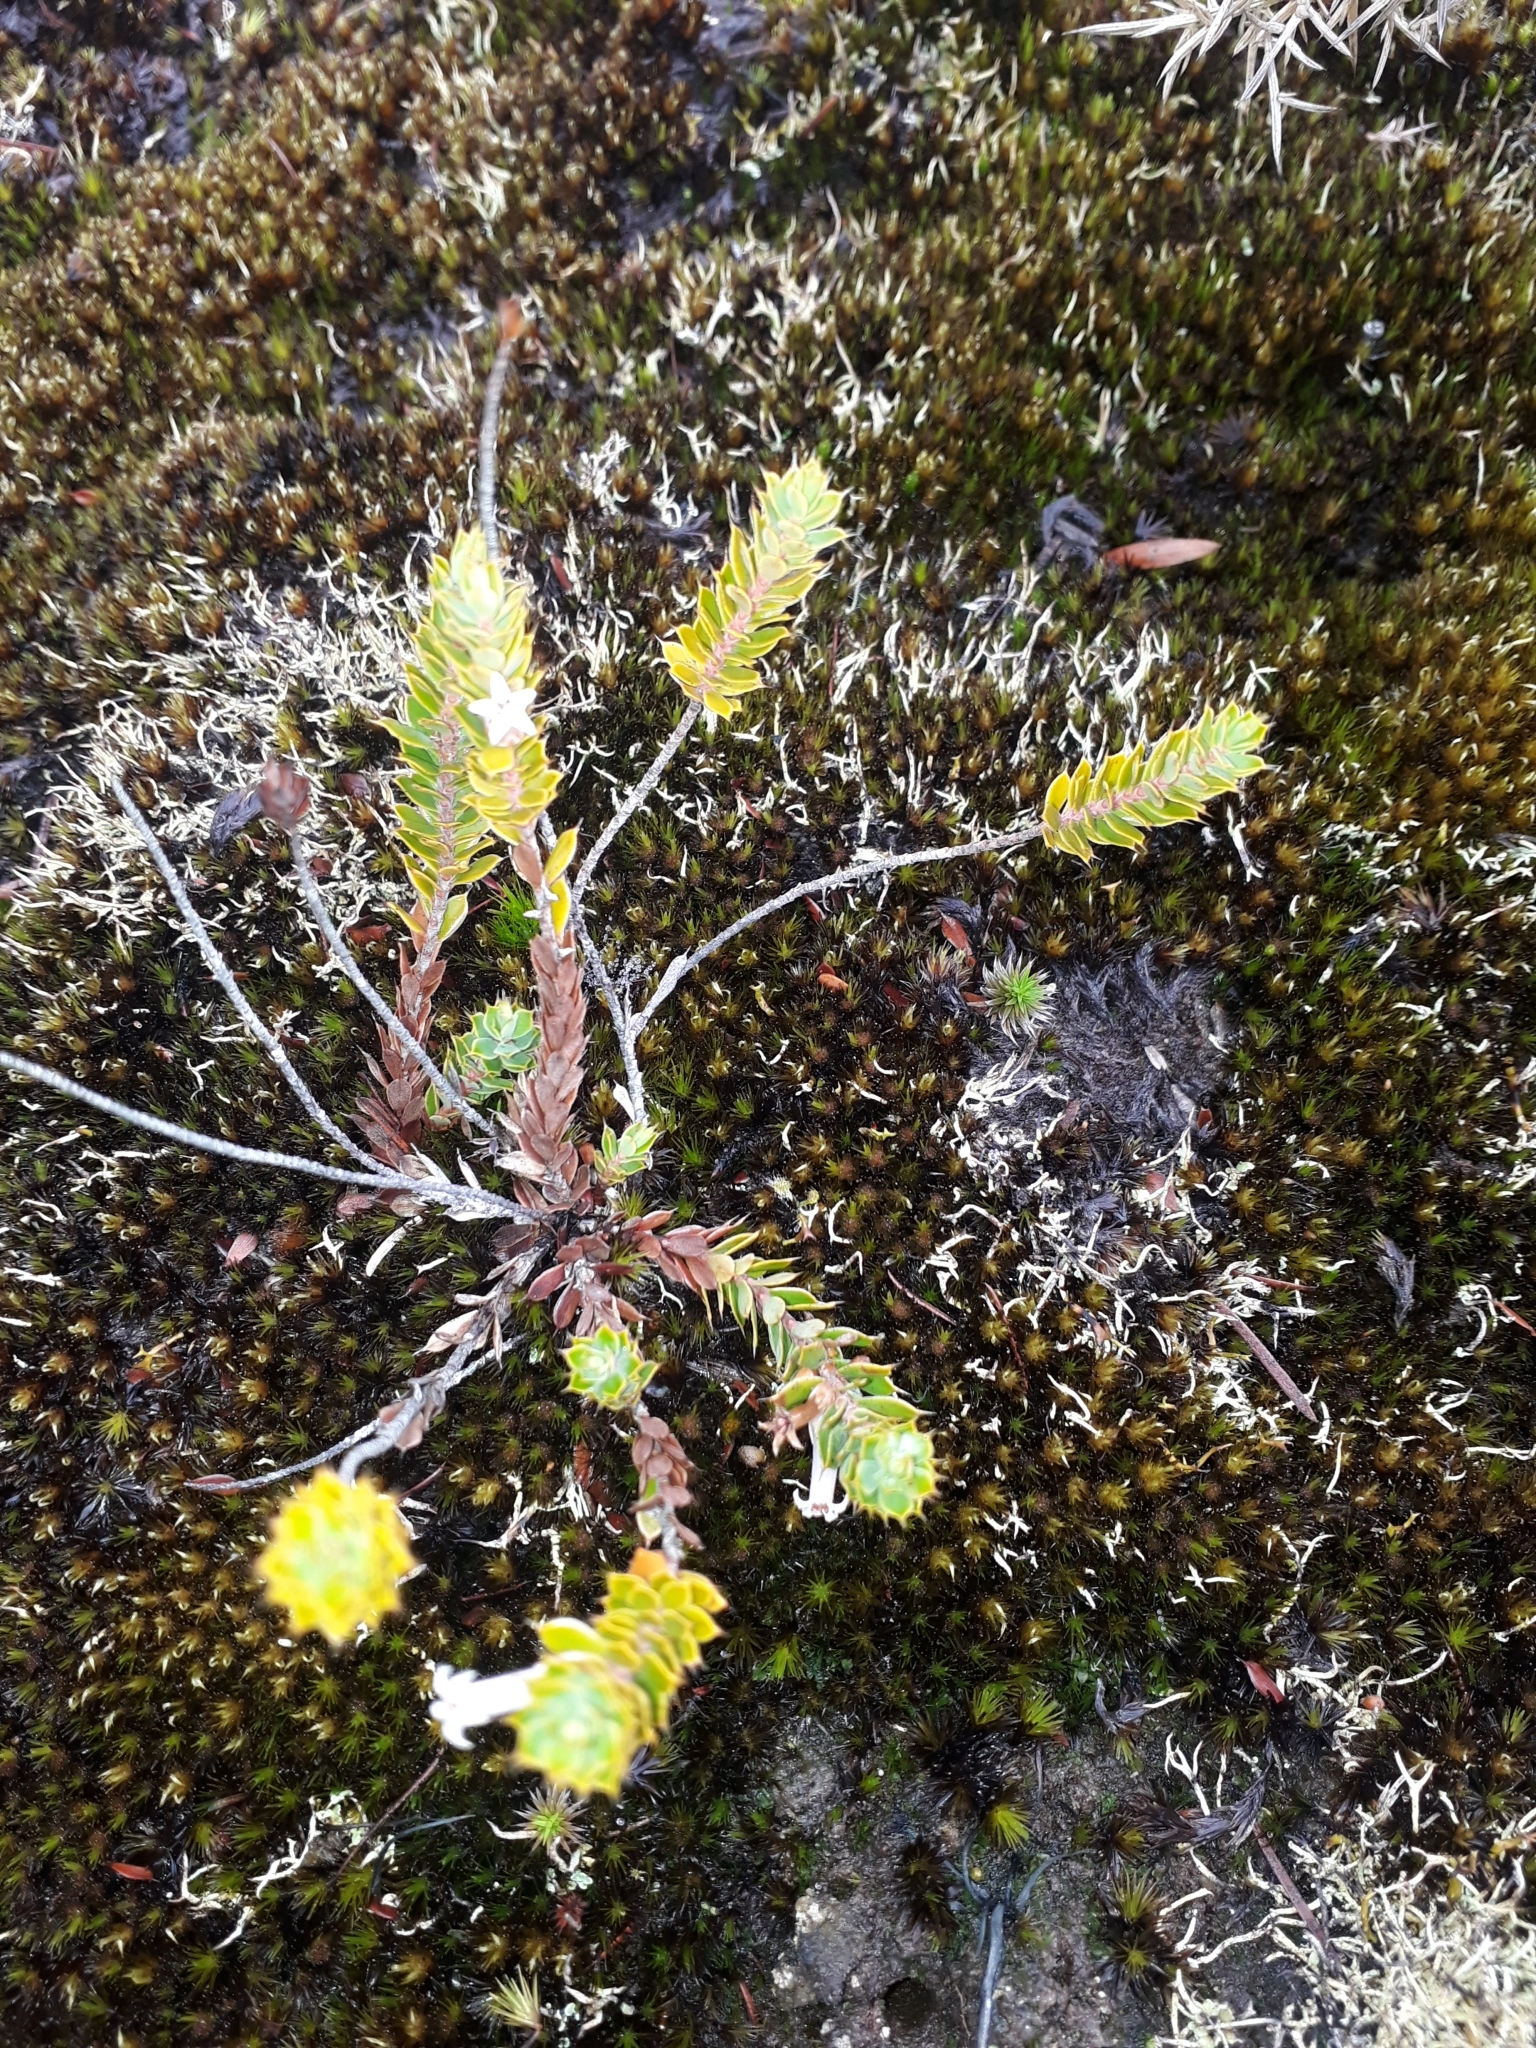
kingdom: Plantae
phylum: Tracheophyta
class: Magnoliopsida
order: Ericales
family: Ericaceae
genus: Styphelia
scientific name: Styphelia nesophila
